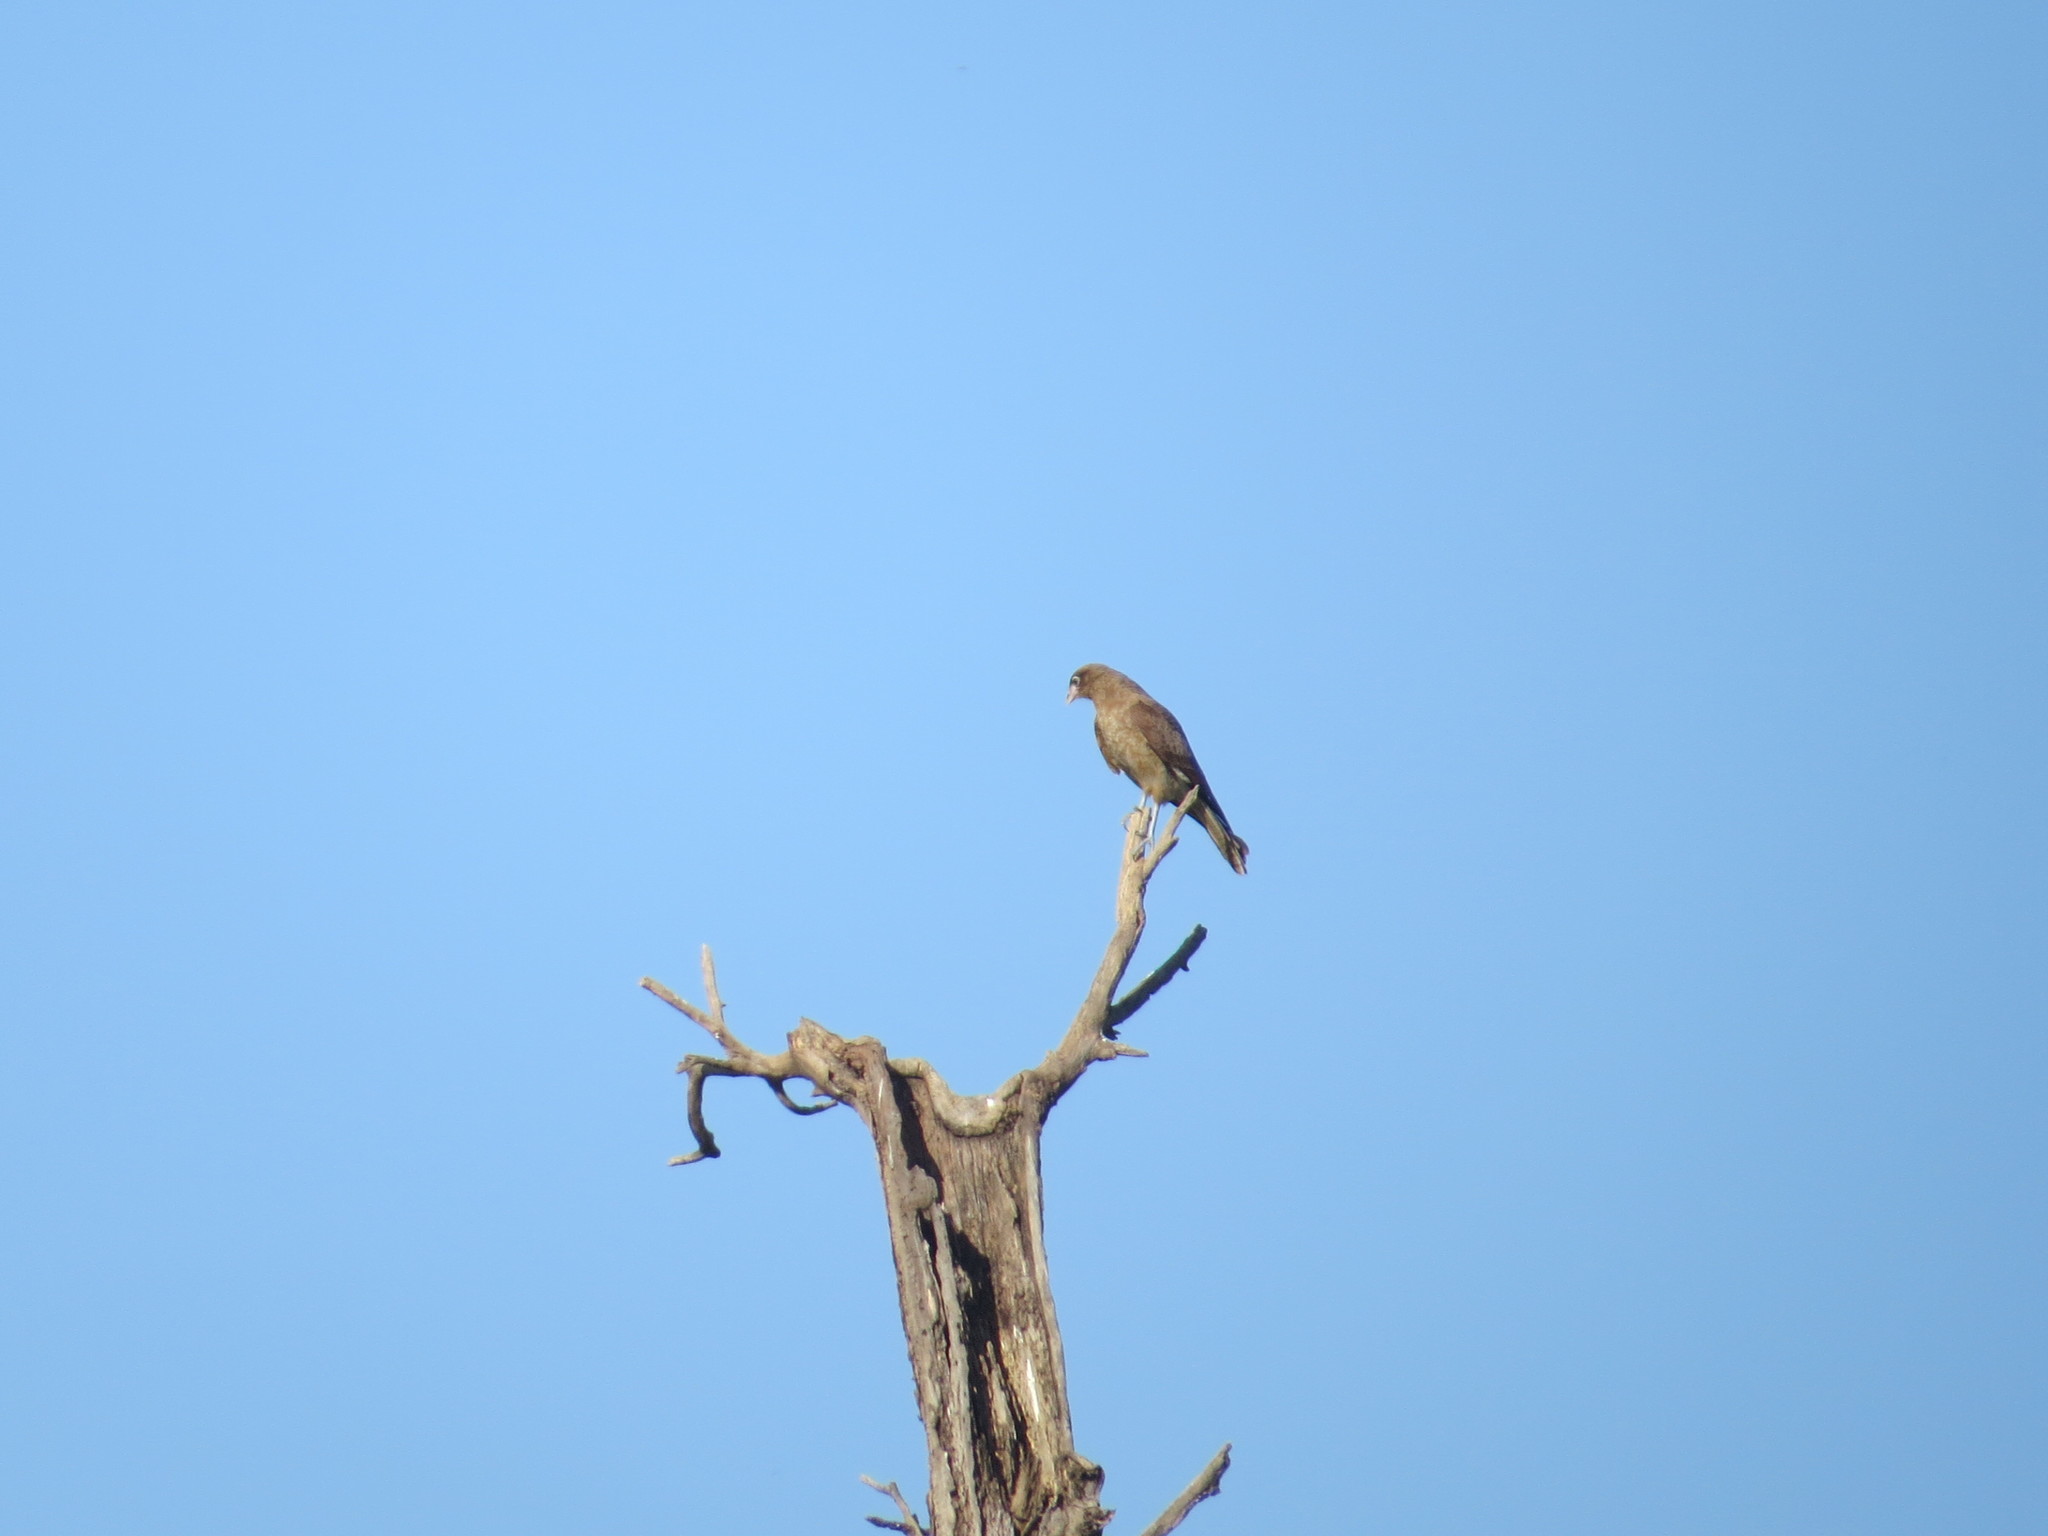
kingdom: Animalia
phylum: Chordata
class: Aves
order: Falconiformes
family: Falconidae
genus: Daptrius
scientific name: Daptrius
